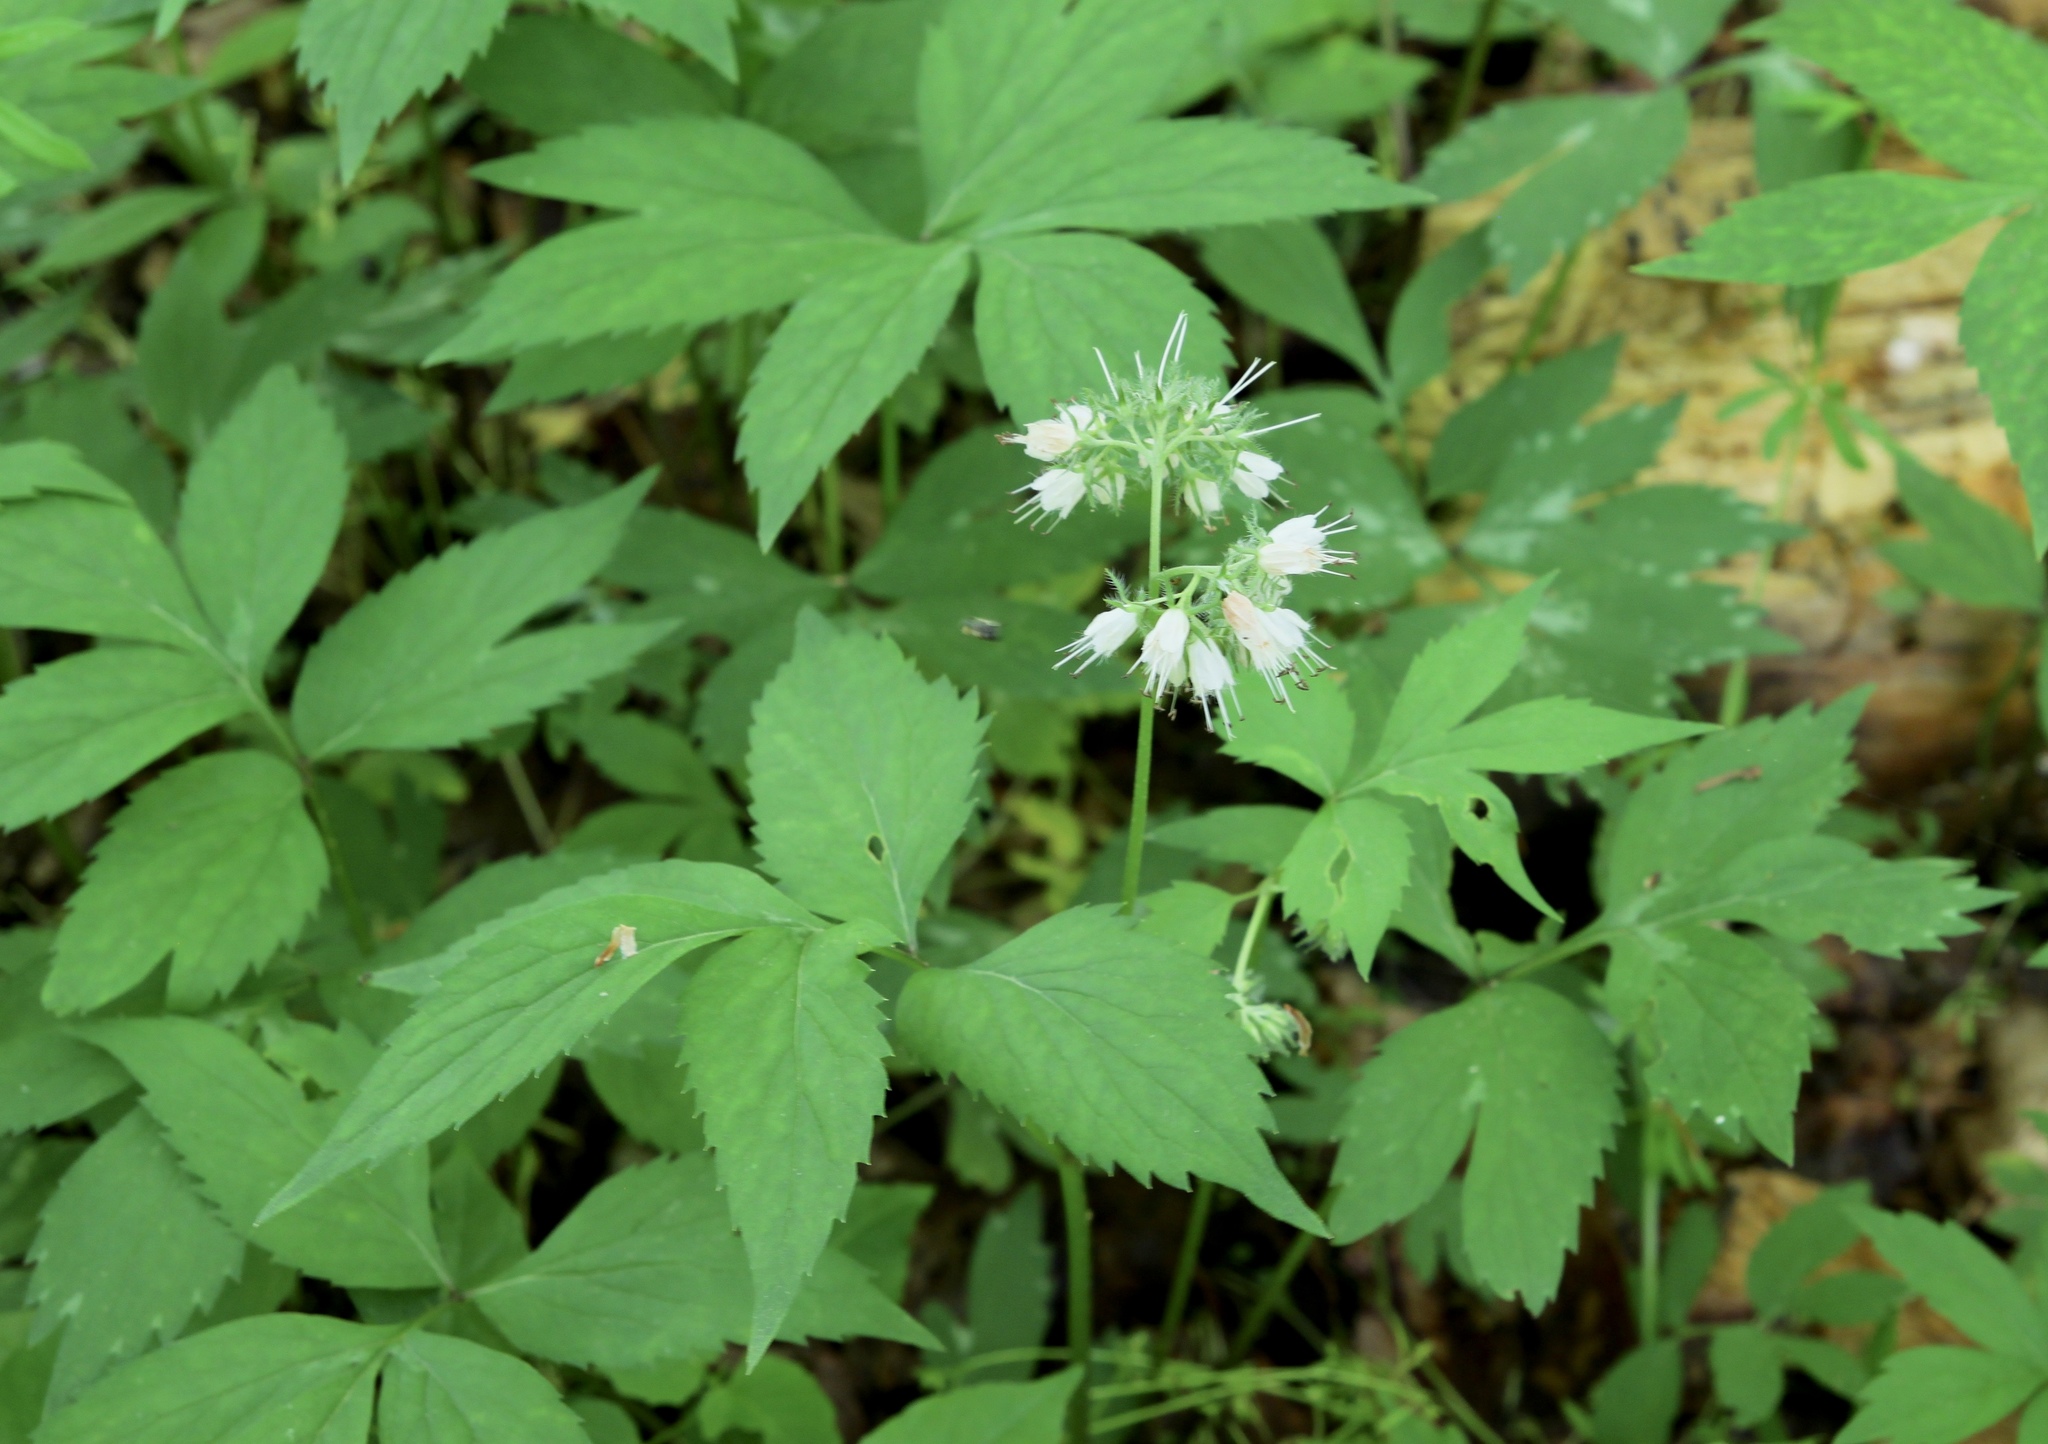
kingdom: Plantae
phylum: Tracheophyta
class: Magnoliopsida
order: Boraginales
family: Hydrophyllaceae
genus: Hydrophyllum
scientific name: Hydrophyllum virginianum
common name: Virginia waterleaf
